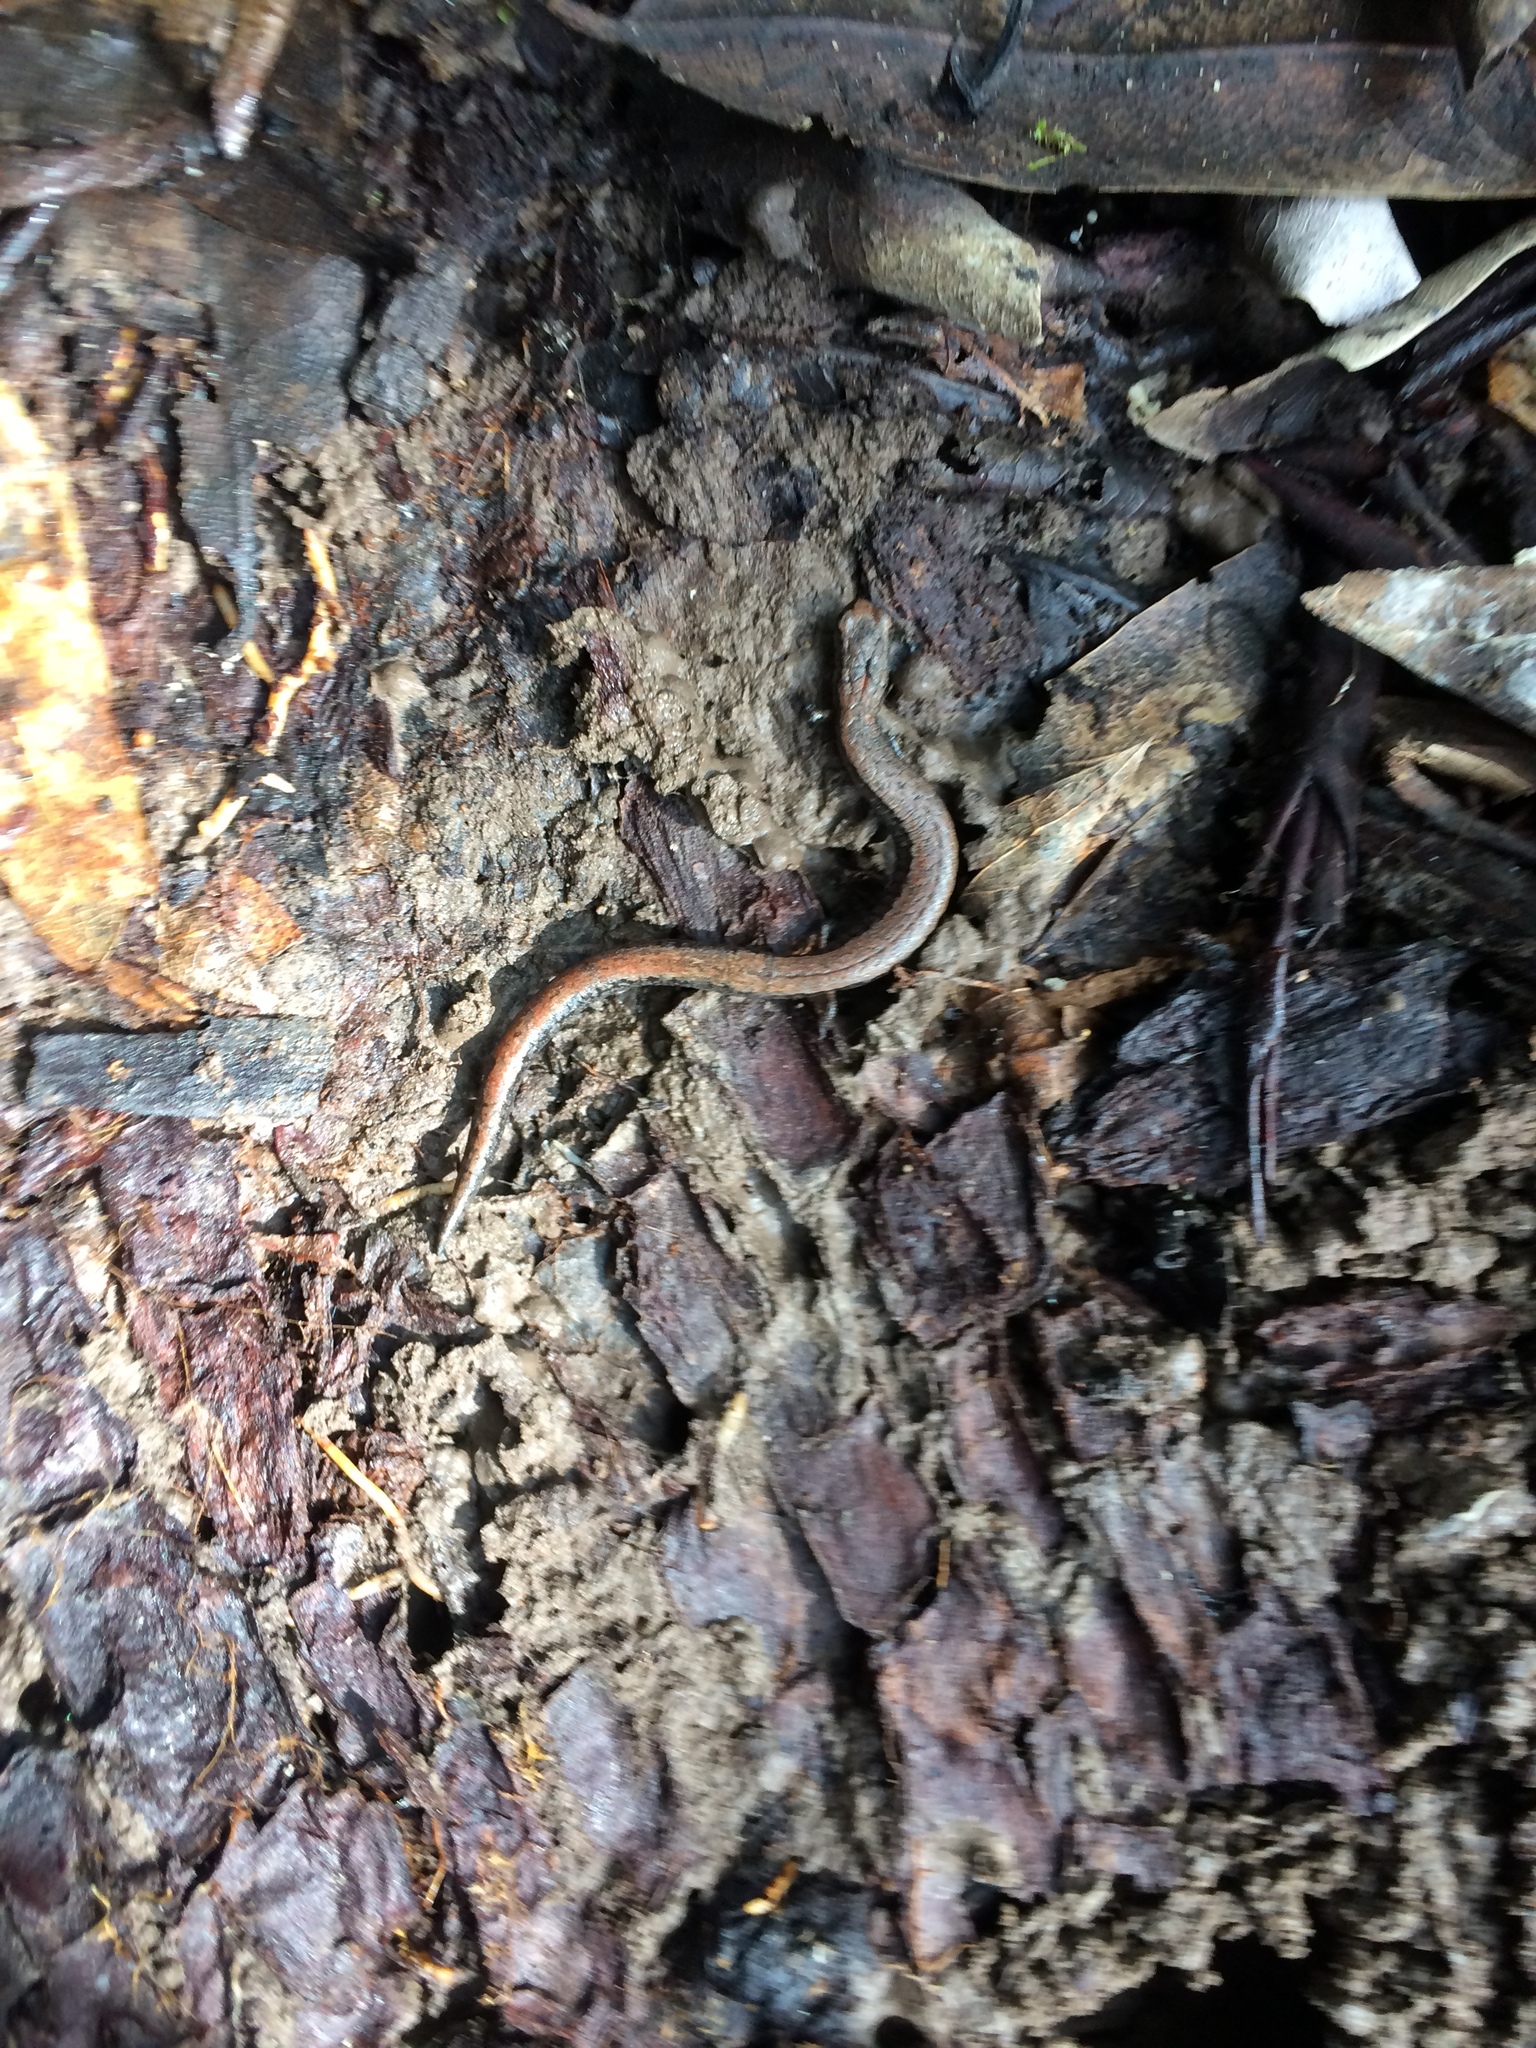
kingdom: Animalia
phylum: Chordata
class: Amphibia
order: Caudata
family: Plethodontidae
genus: Batrachoseps
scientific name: Batrachoseps attenuatus
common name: California slender salamander
